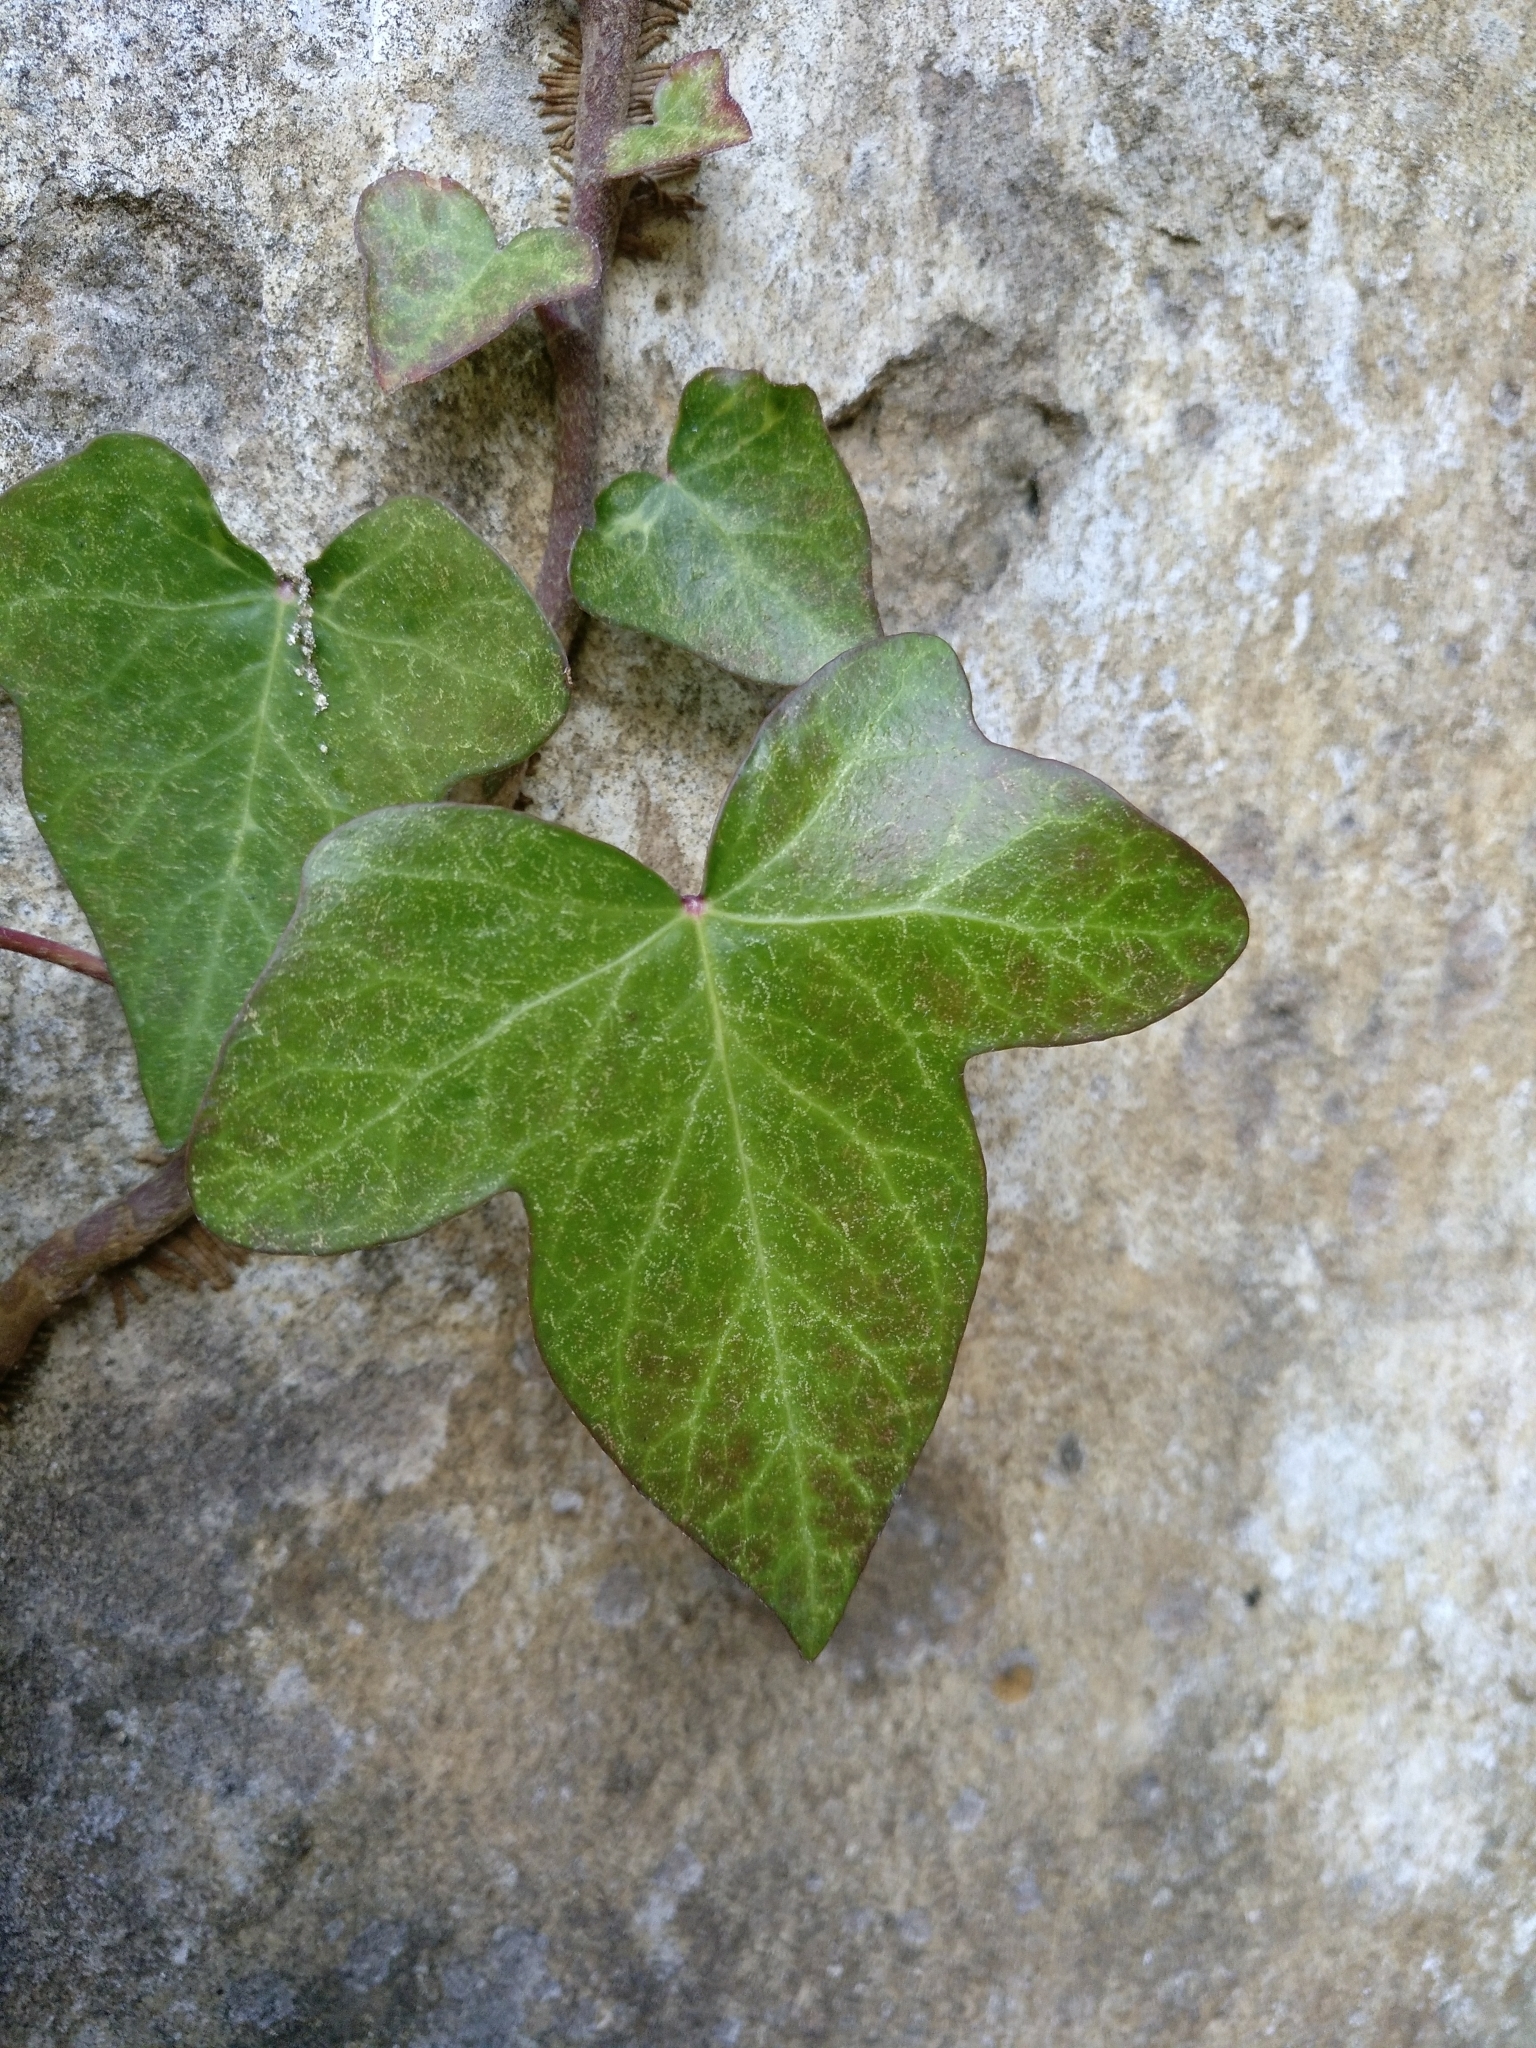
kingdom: Plantae
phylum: Tracheophyta
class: Magnoliopsida
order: Apiales
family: Araliaceae
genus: Hedera
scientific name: Hedera helix
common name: Ivy
